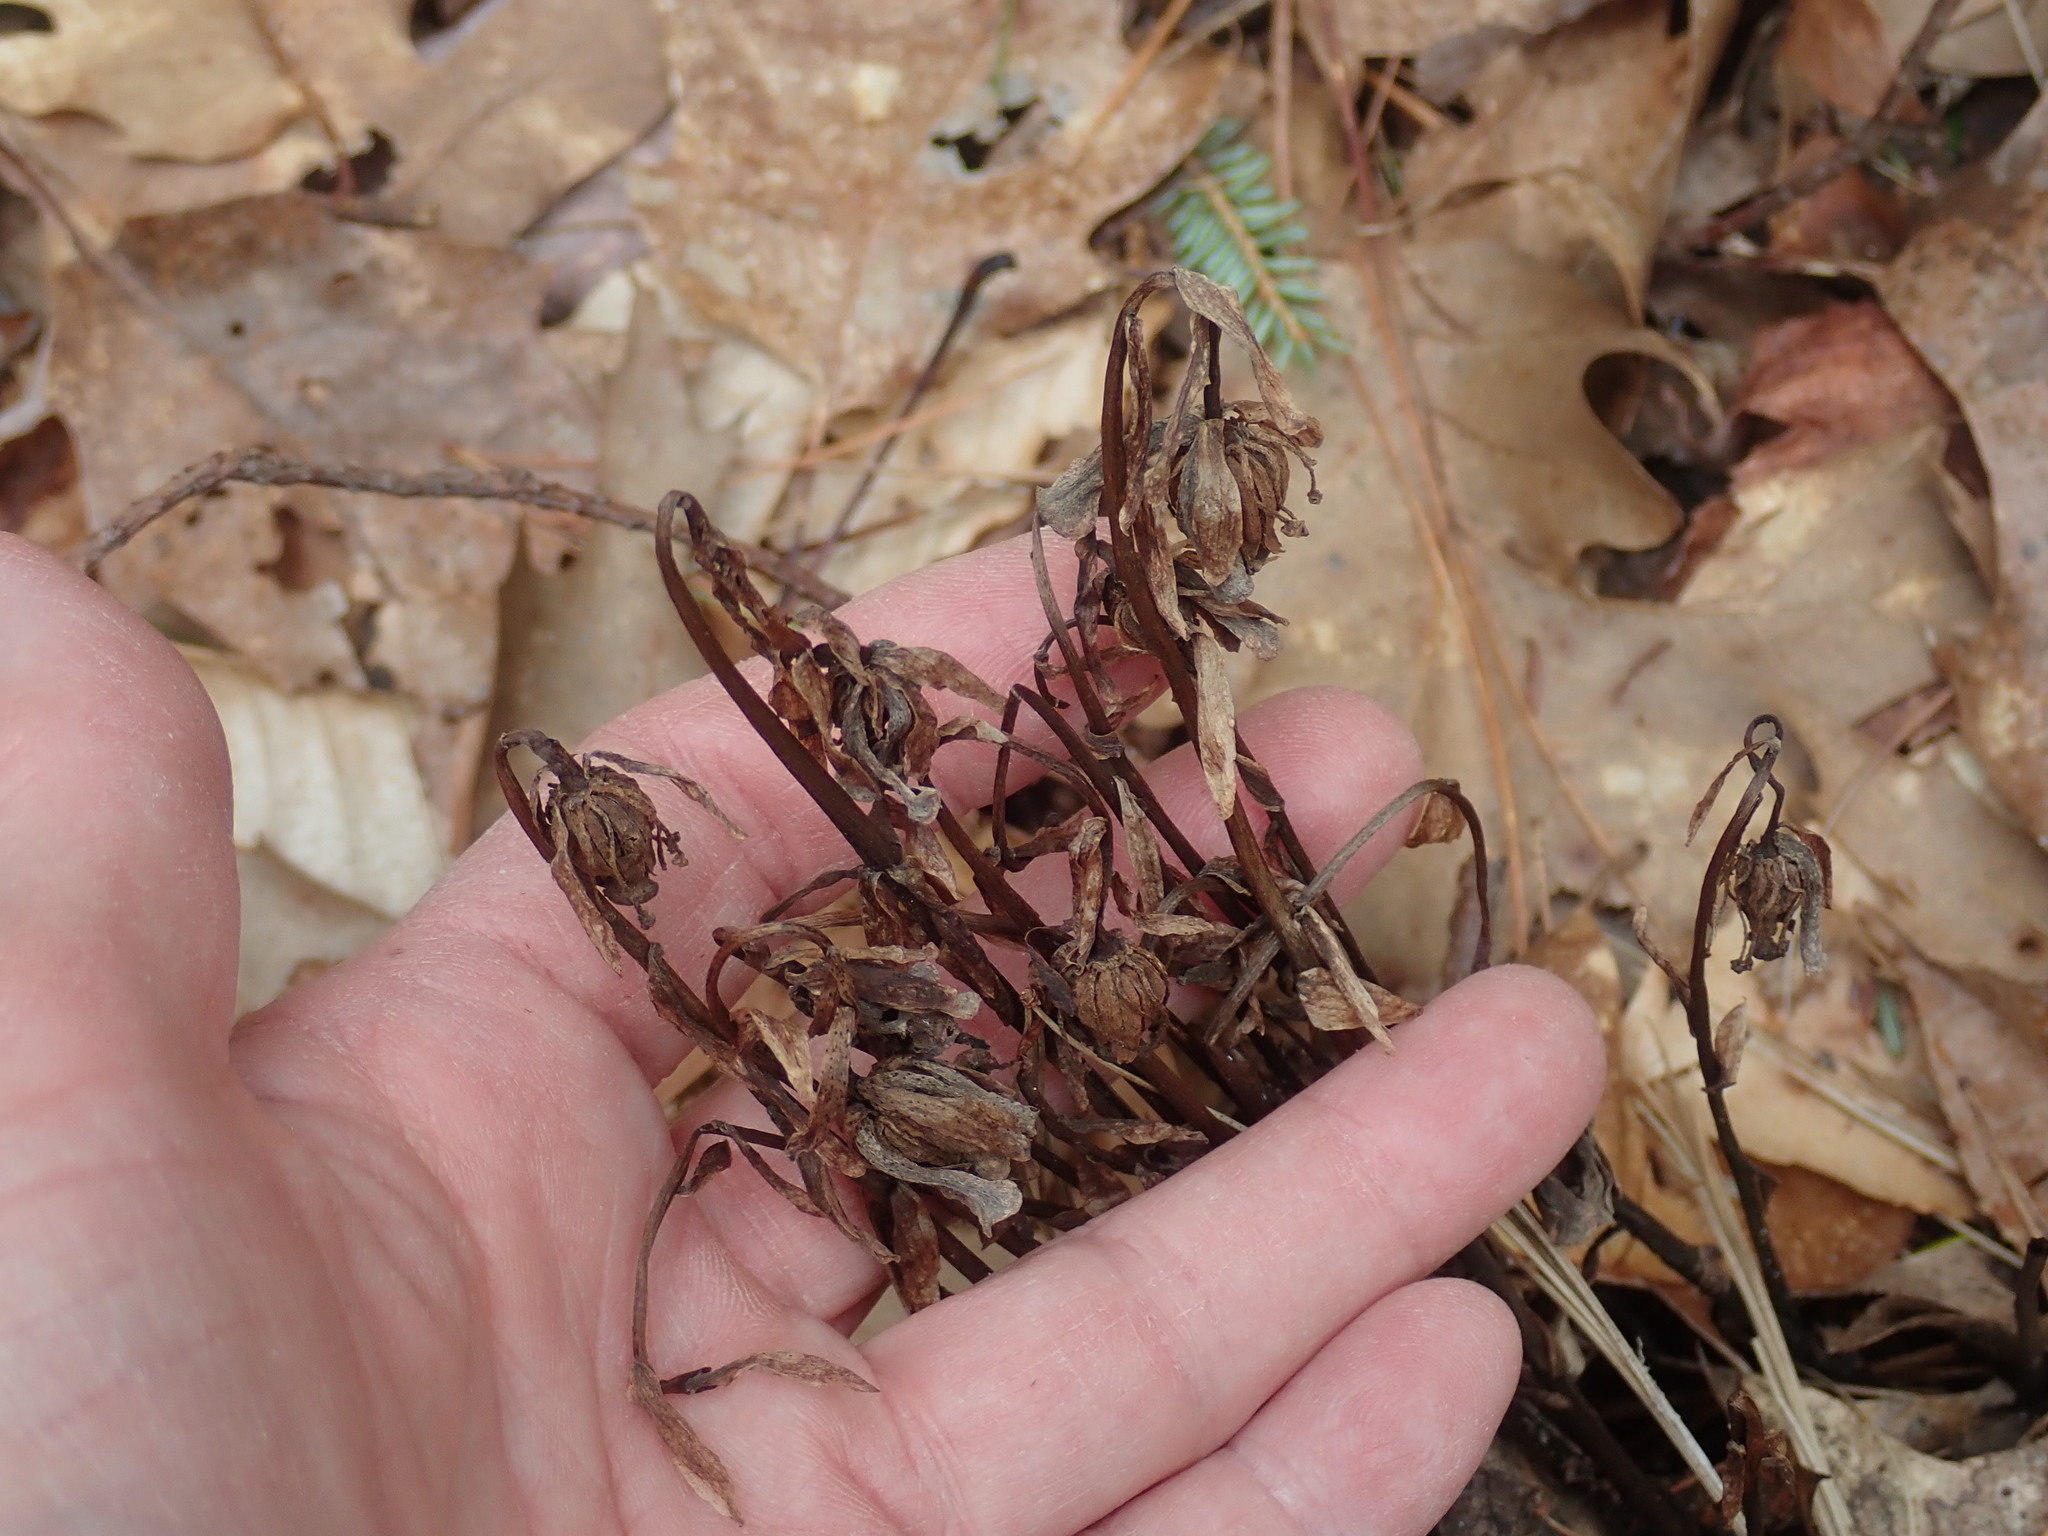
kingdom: Plantae
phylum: Tracheophyta
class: Magnoliopsida
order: Ericales
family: Ericaceae
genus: Monotropa
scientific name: Monotropa uniflora
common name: Convulsion root
